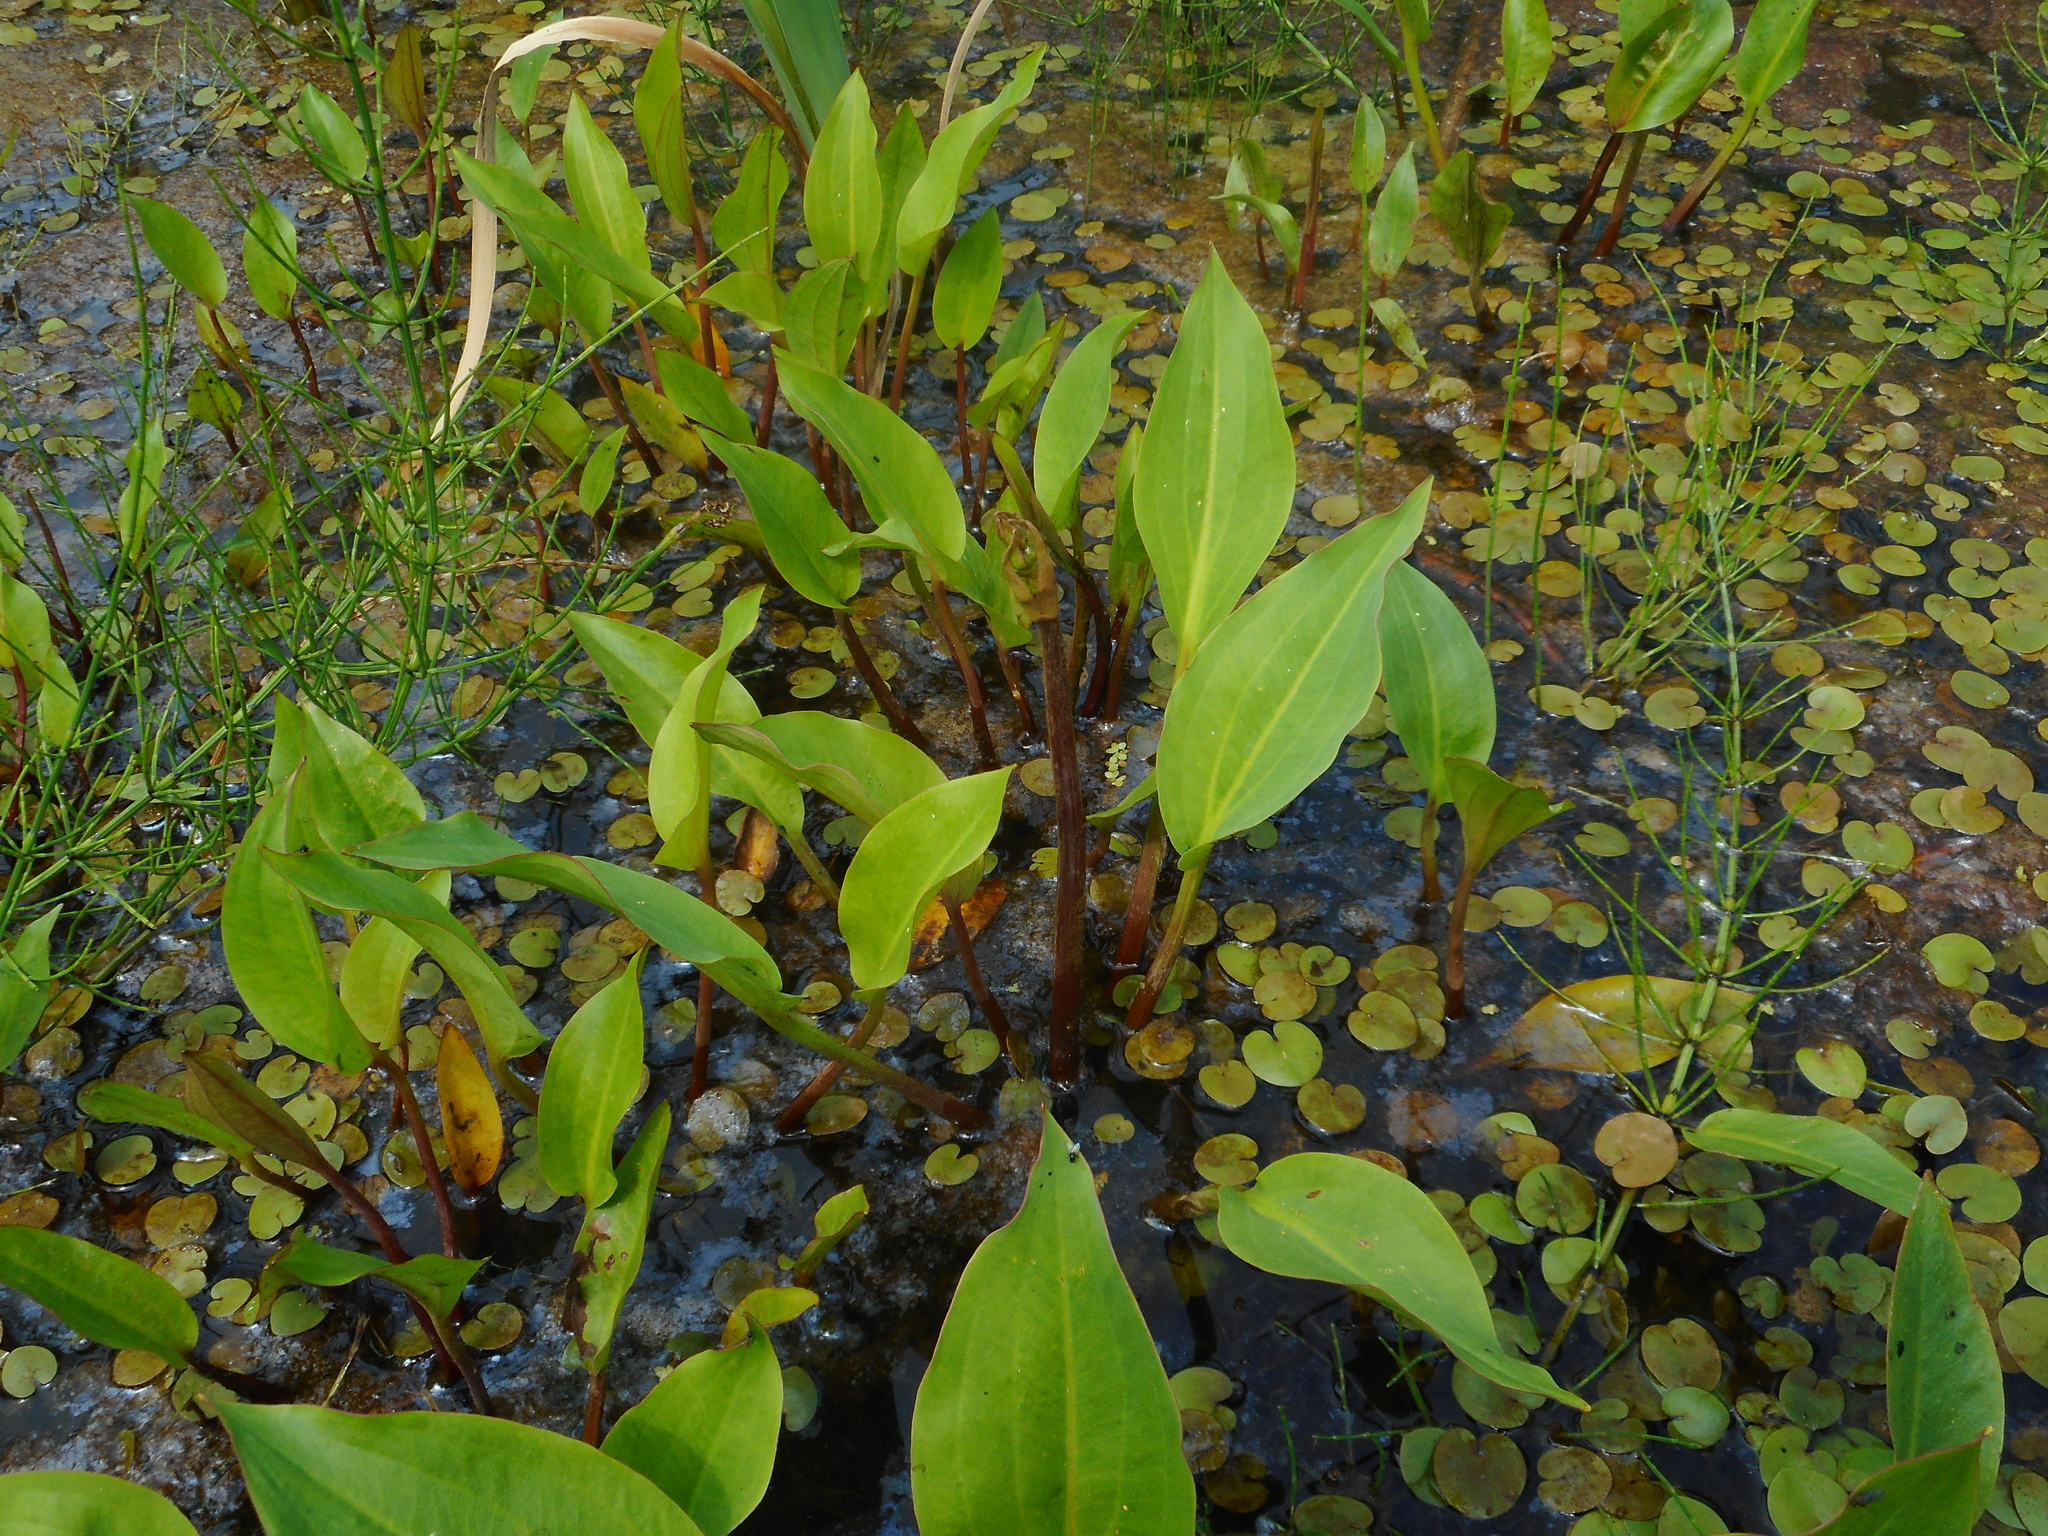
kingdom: Plantae
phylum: Tracheophyta
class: Liliopsida
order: Alismatales
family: Alismataceae
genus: Alisma
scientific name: Alisma plantago-aquatica
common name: Water-plantain
